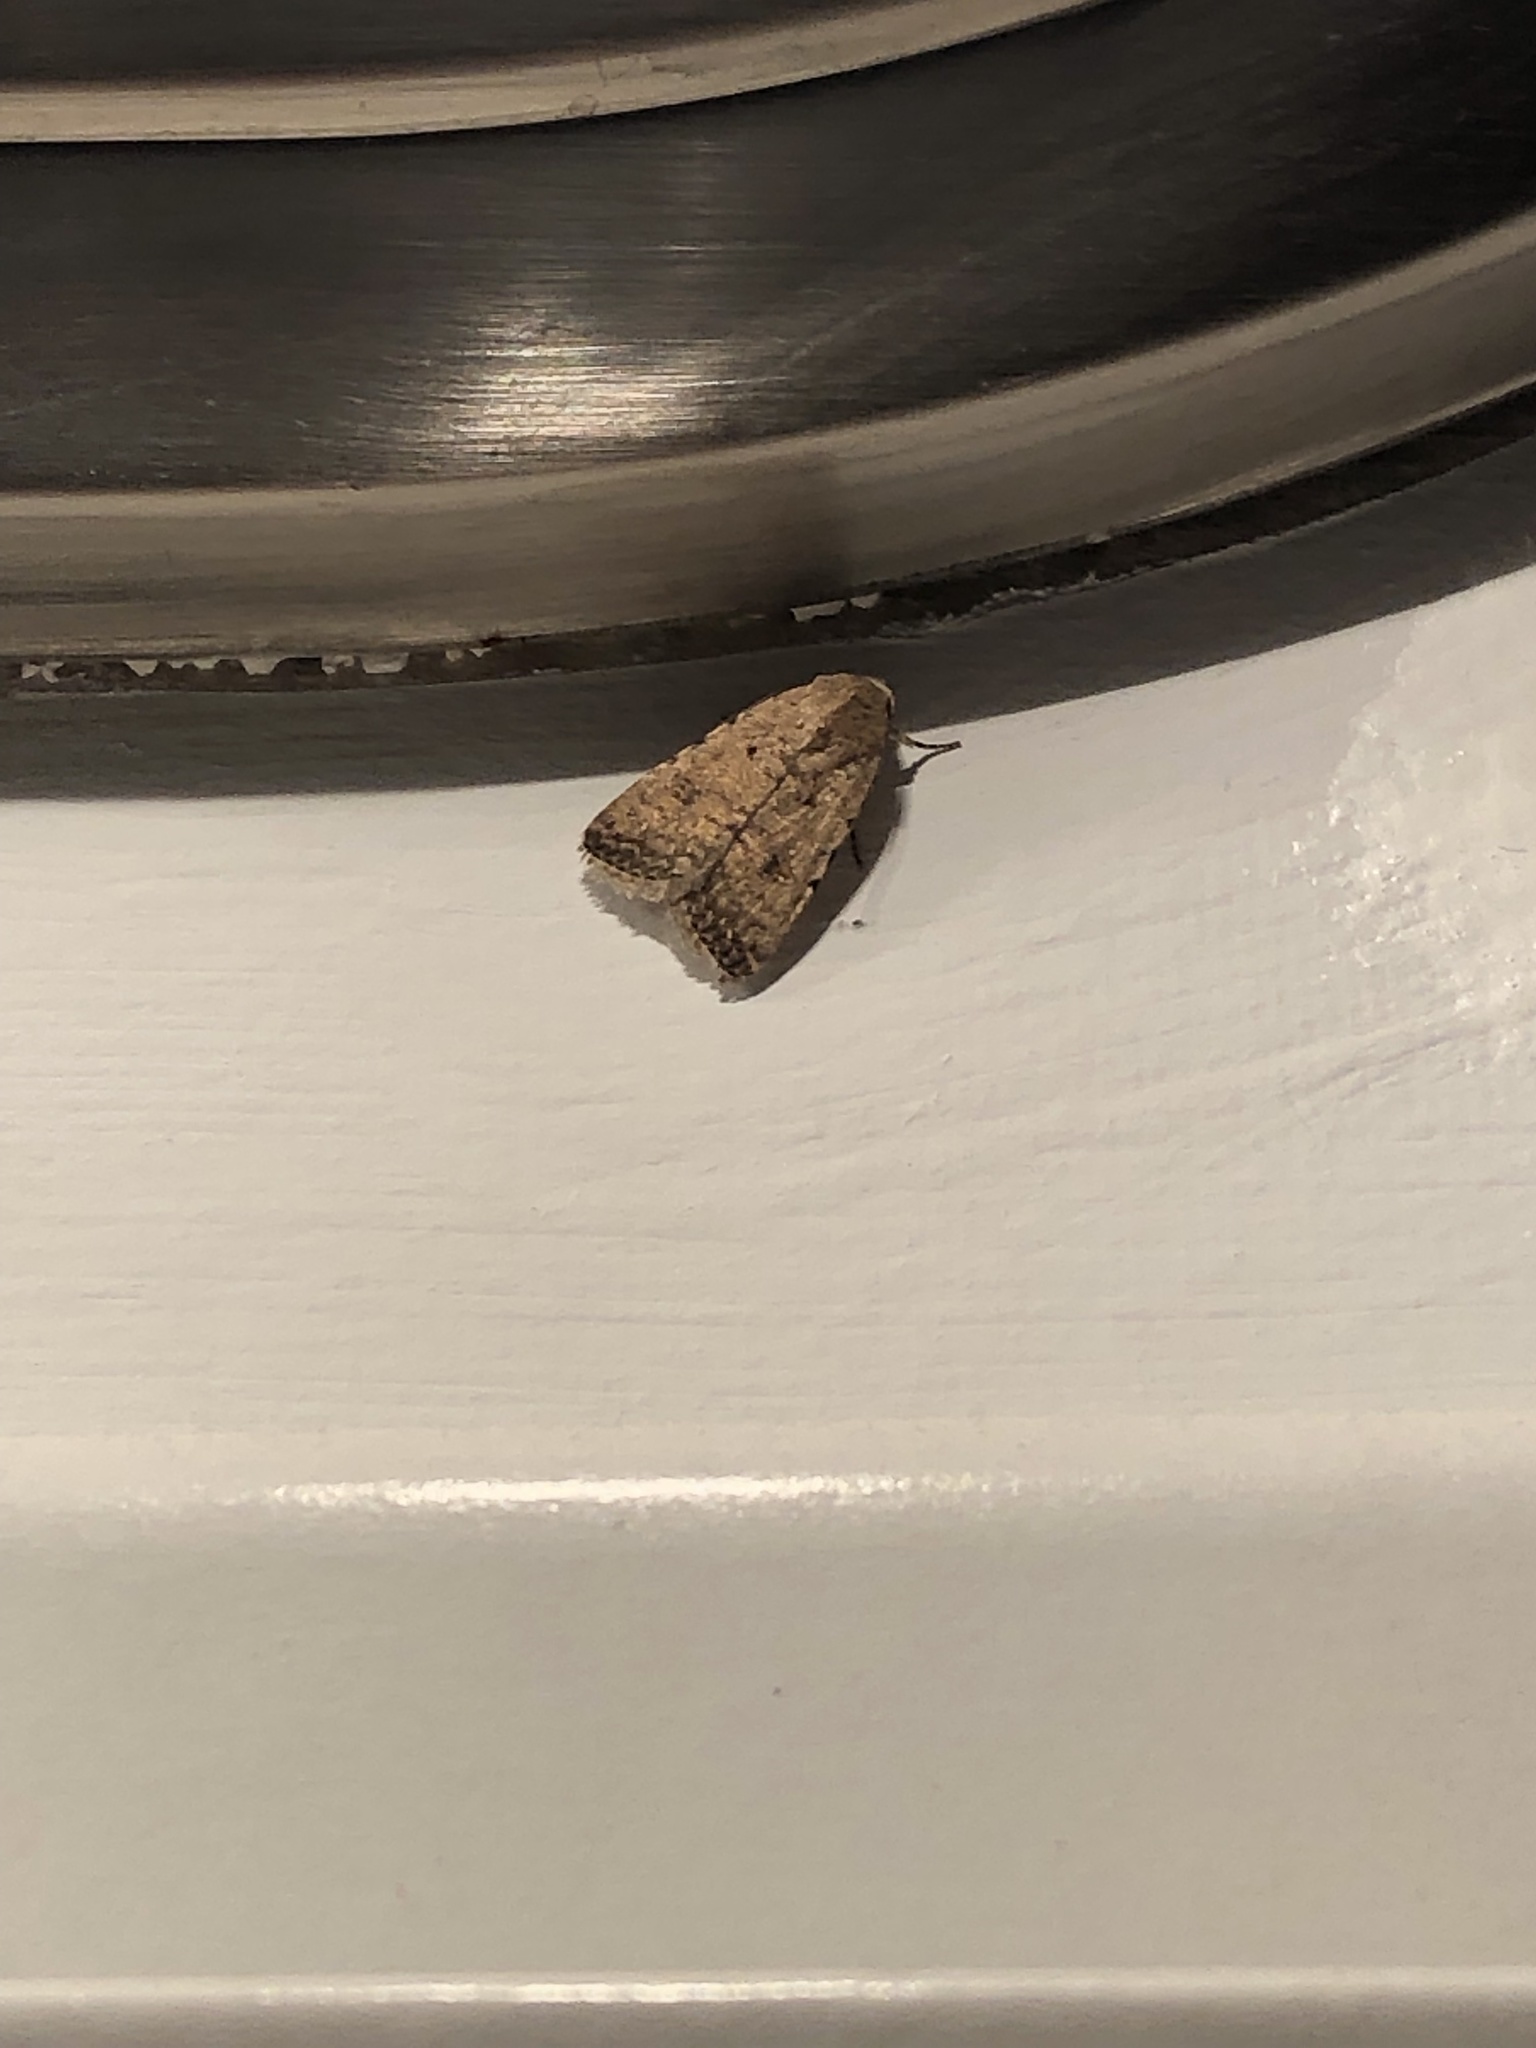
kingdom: Animalia
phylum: Arthropoda
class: Insecta
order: Lepidoptera
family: Noctuidae
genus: Caradrina
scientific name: Caradrina clavipalpis
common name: Pale mottled willow
